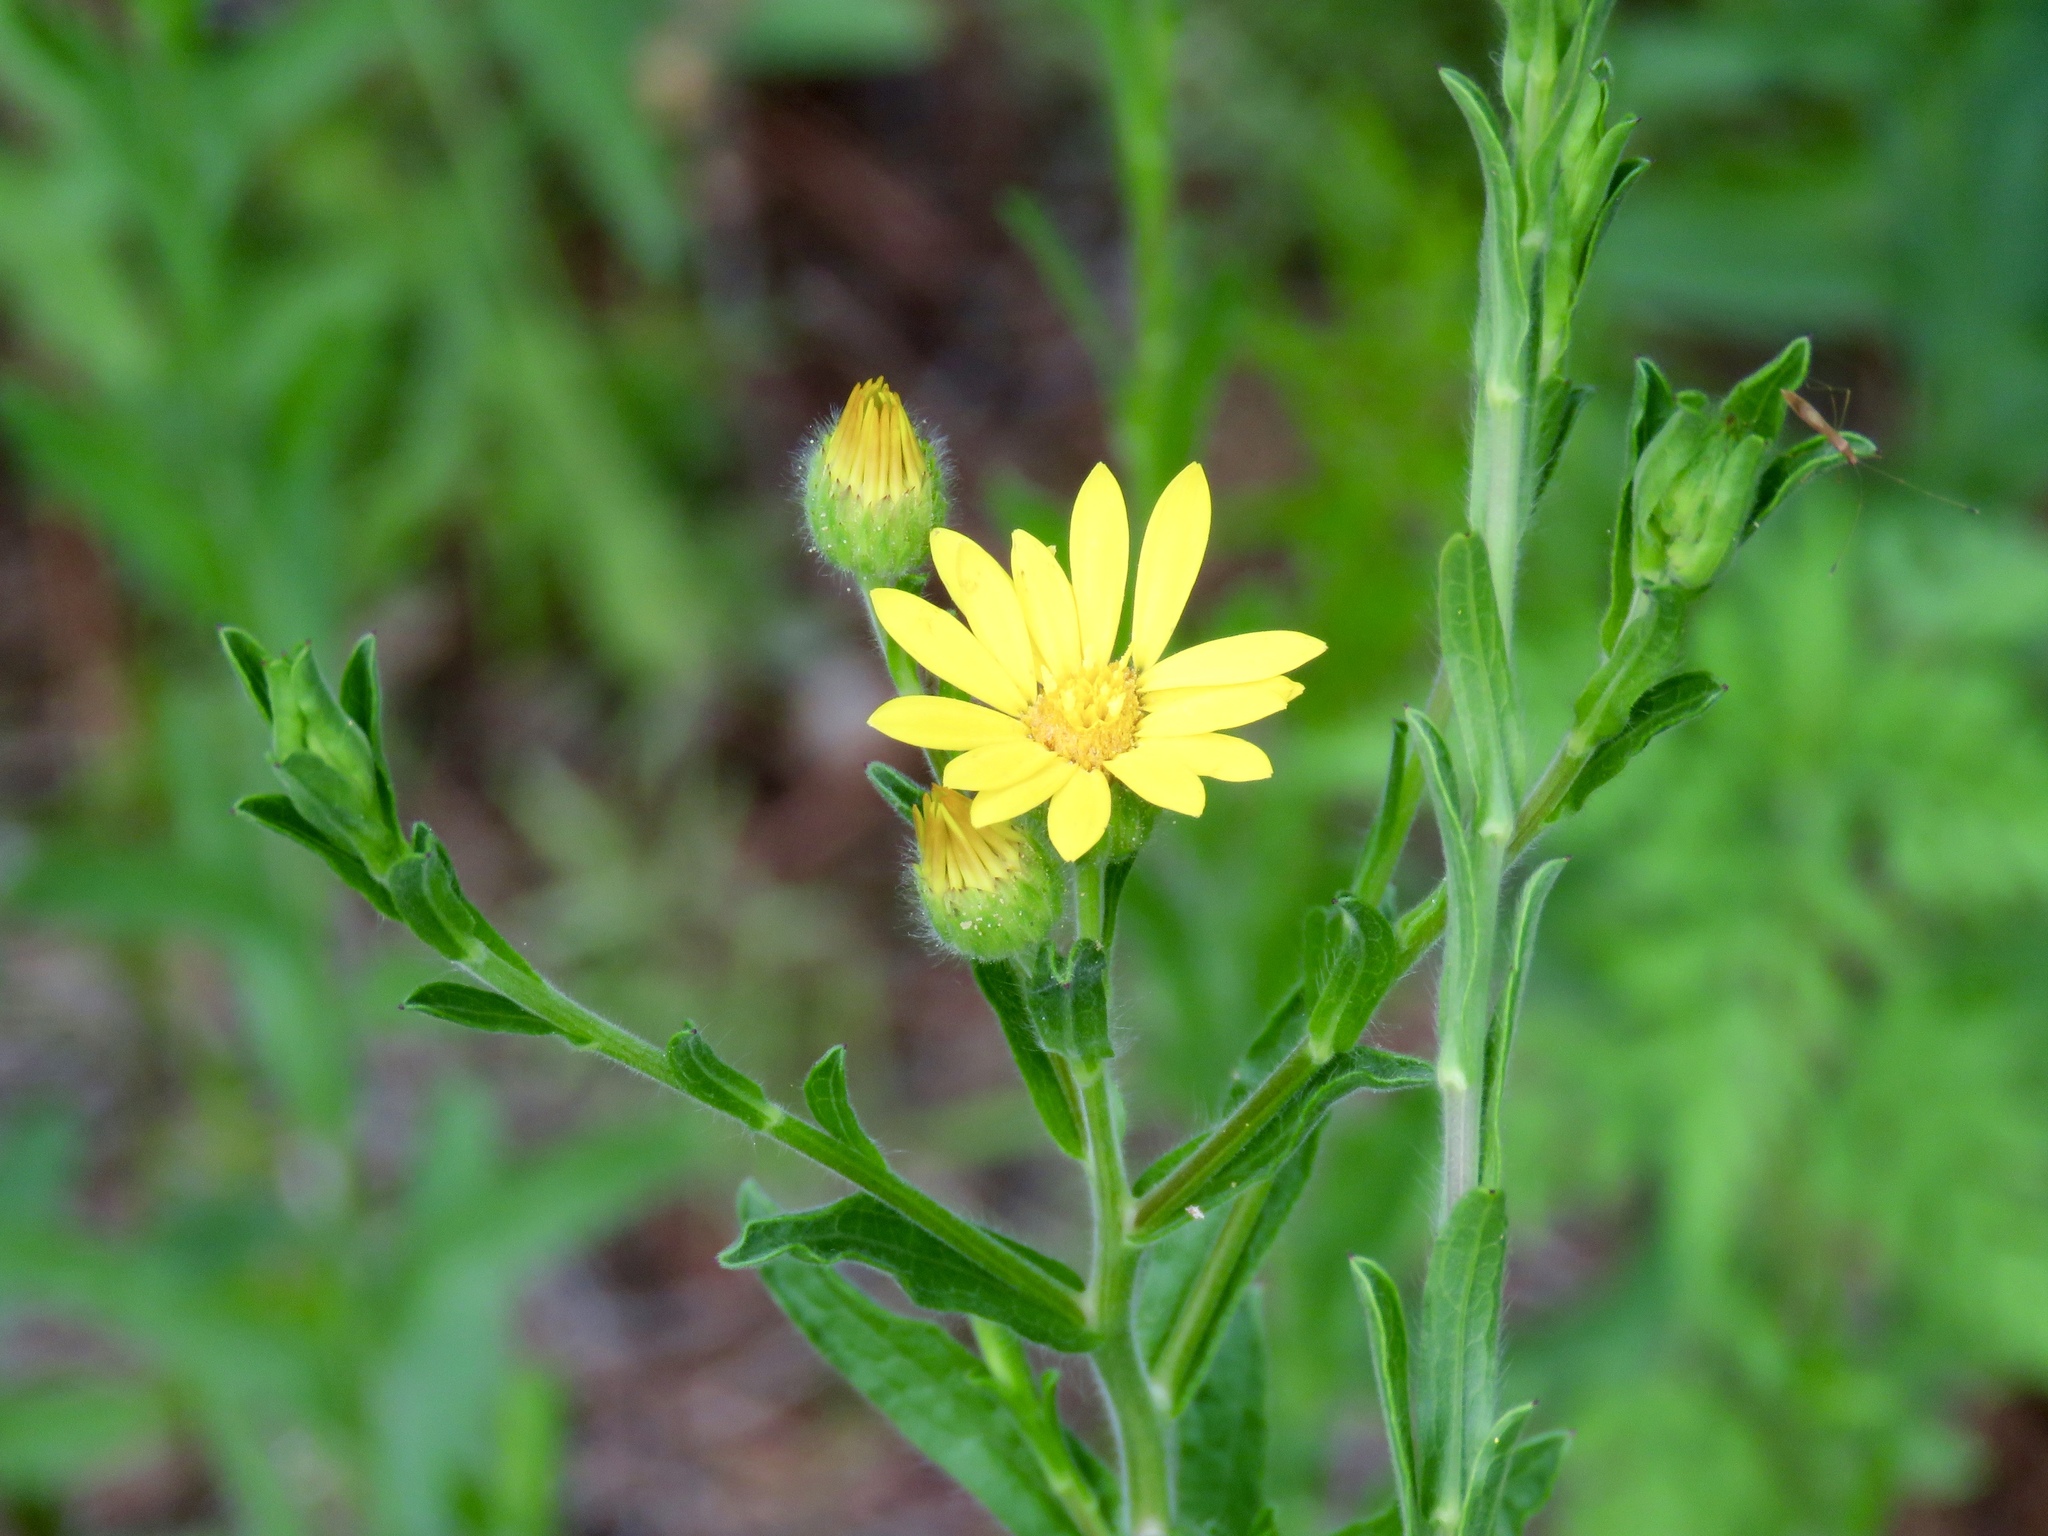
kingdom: Plantae
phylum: Tracheophyta
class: Magnoliopsida
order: Asterales
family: Asteraceae
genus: Bradburia
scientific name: Bradburia pilosa
